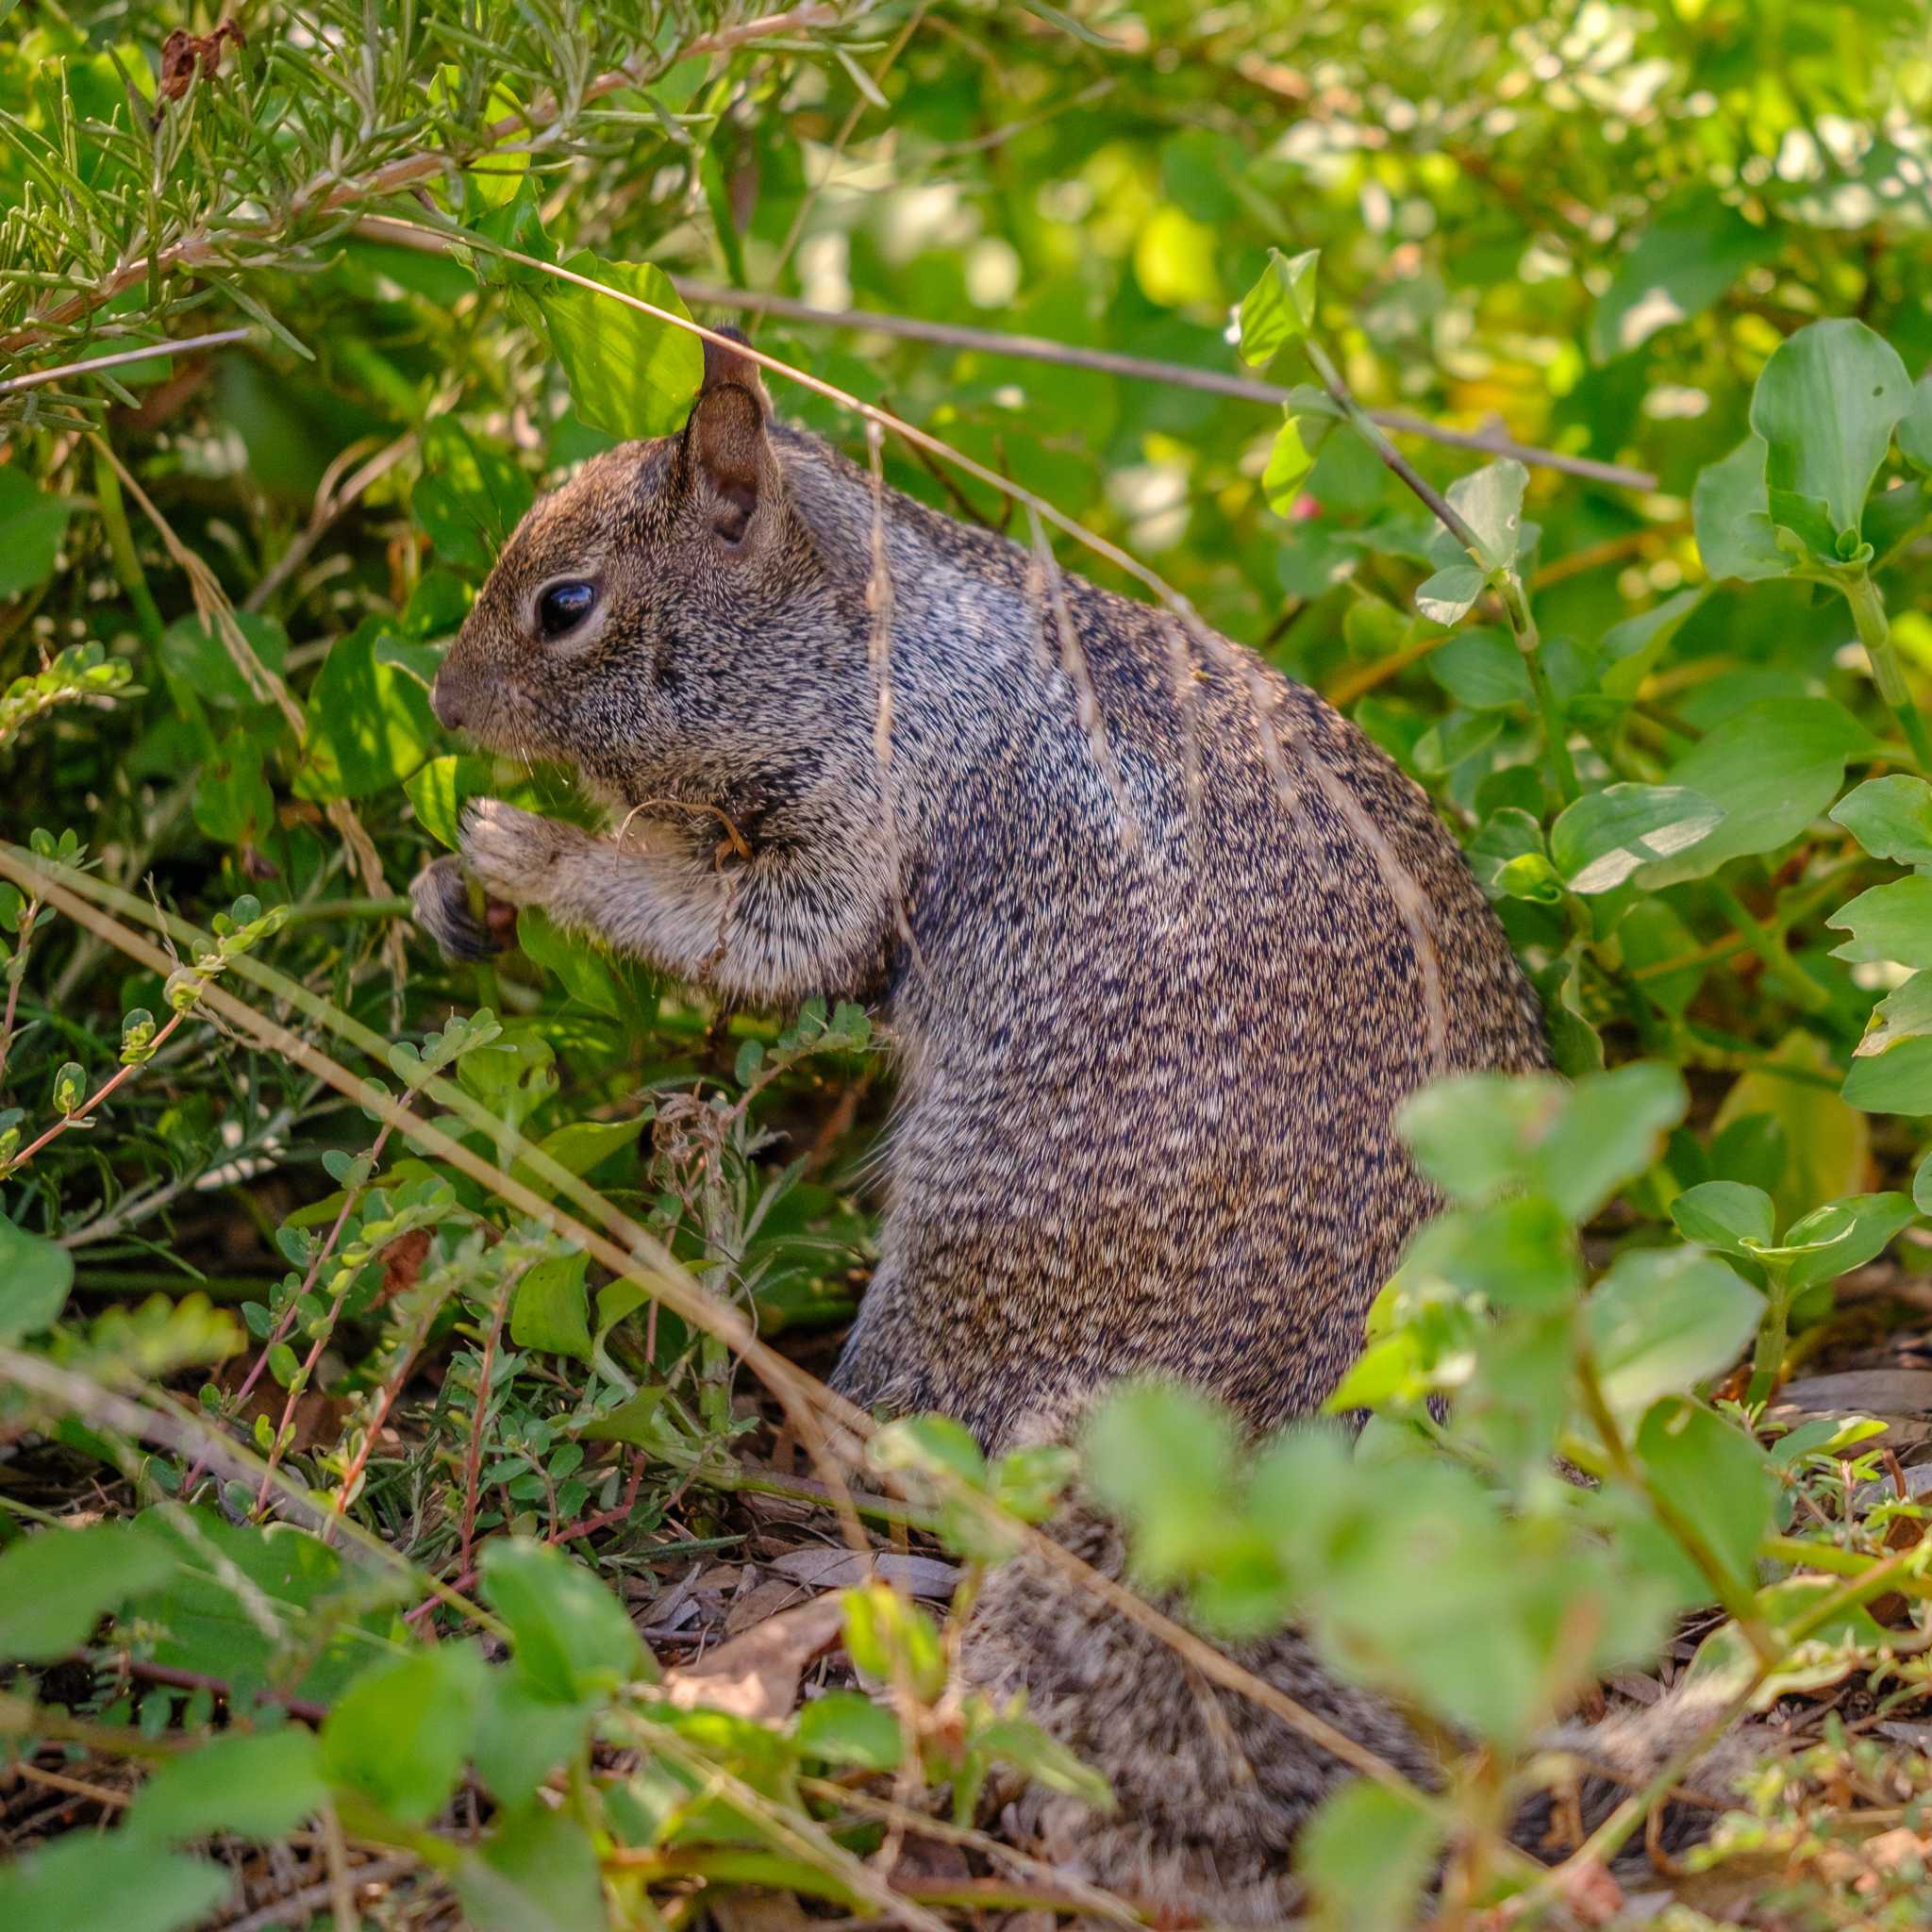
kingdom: Animalia
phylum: Chordata
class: Mammalia
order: Rodentia
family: Sciuridae
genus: Otospermophilus
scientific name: Otospermophilus beecheyi
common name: California ground squirrel
